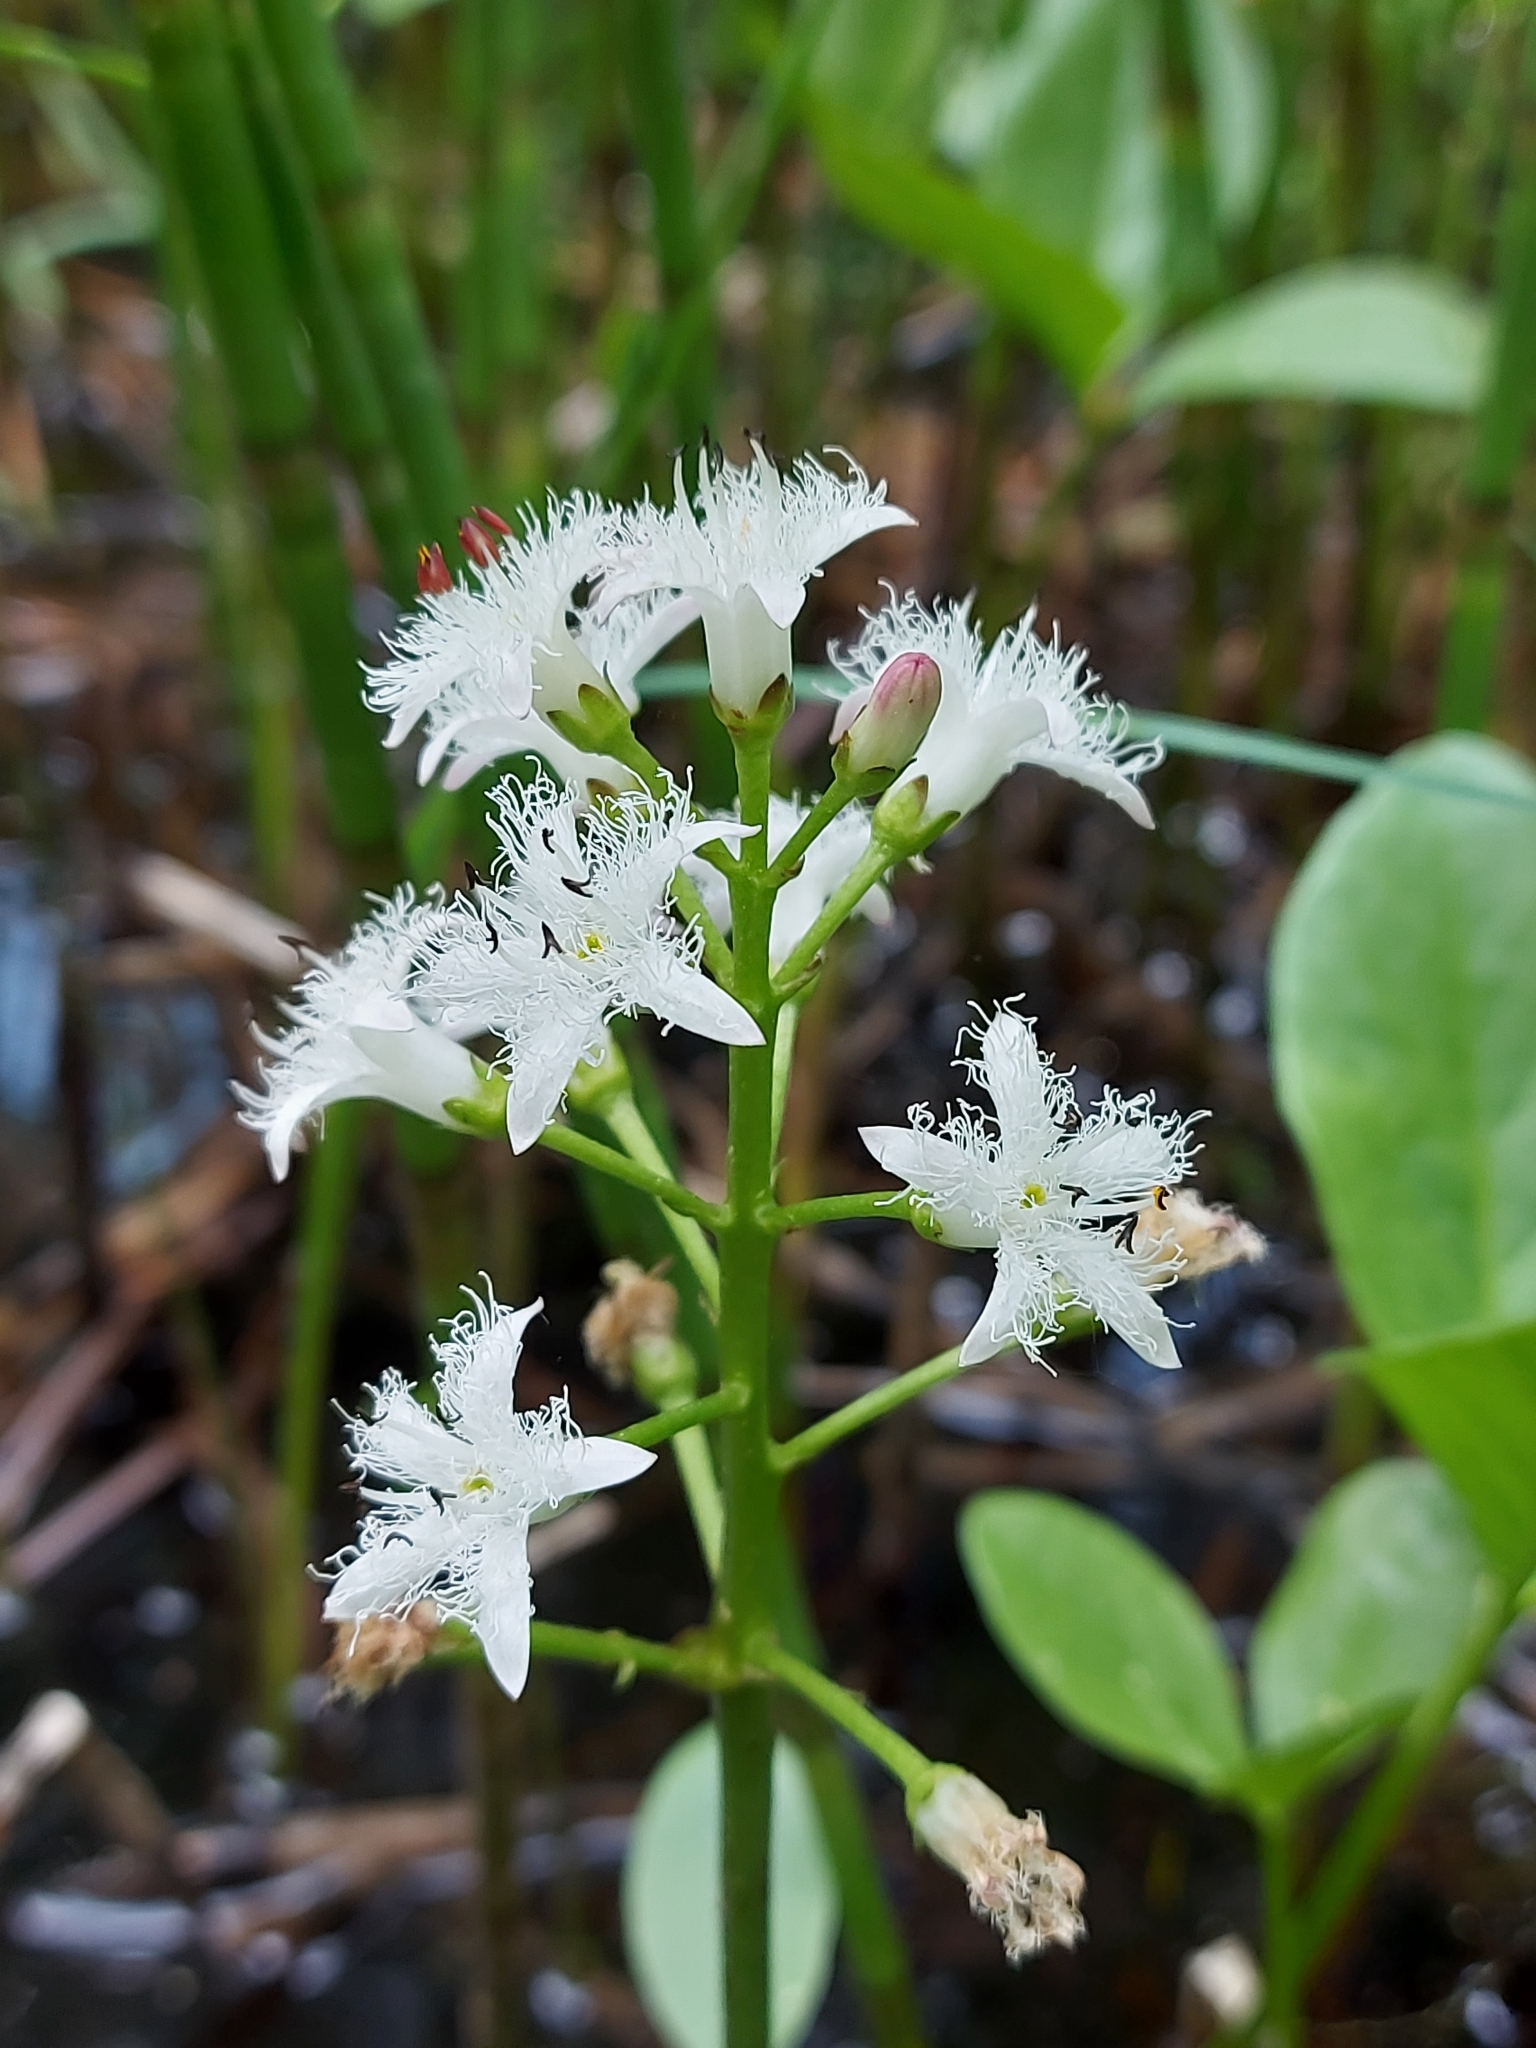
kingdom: Plantae
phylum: Tracheophyta
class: Magnoliopsida
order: Asterales
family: Menyanthaceae
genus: Menyanthes
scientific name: Menyanthes trifoliata
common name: Bogbean
